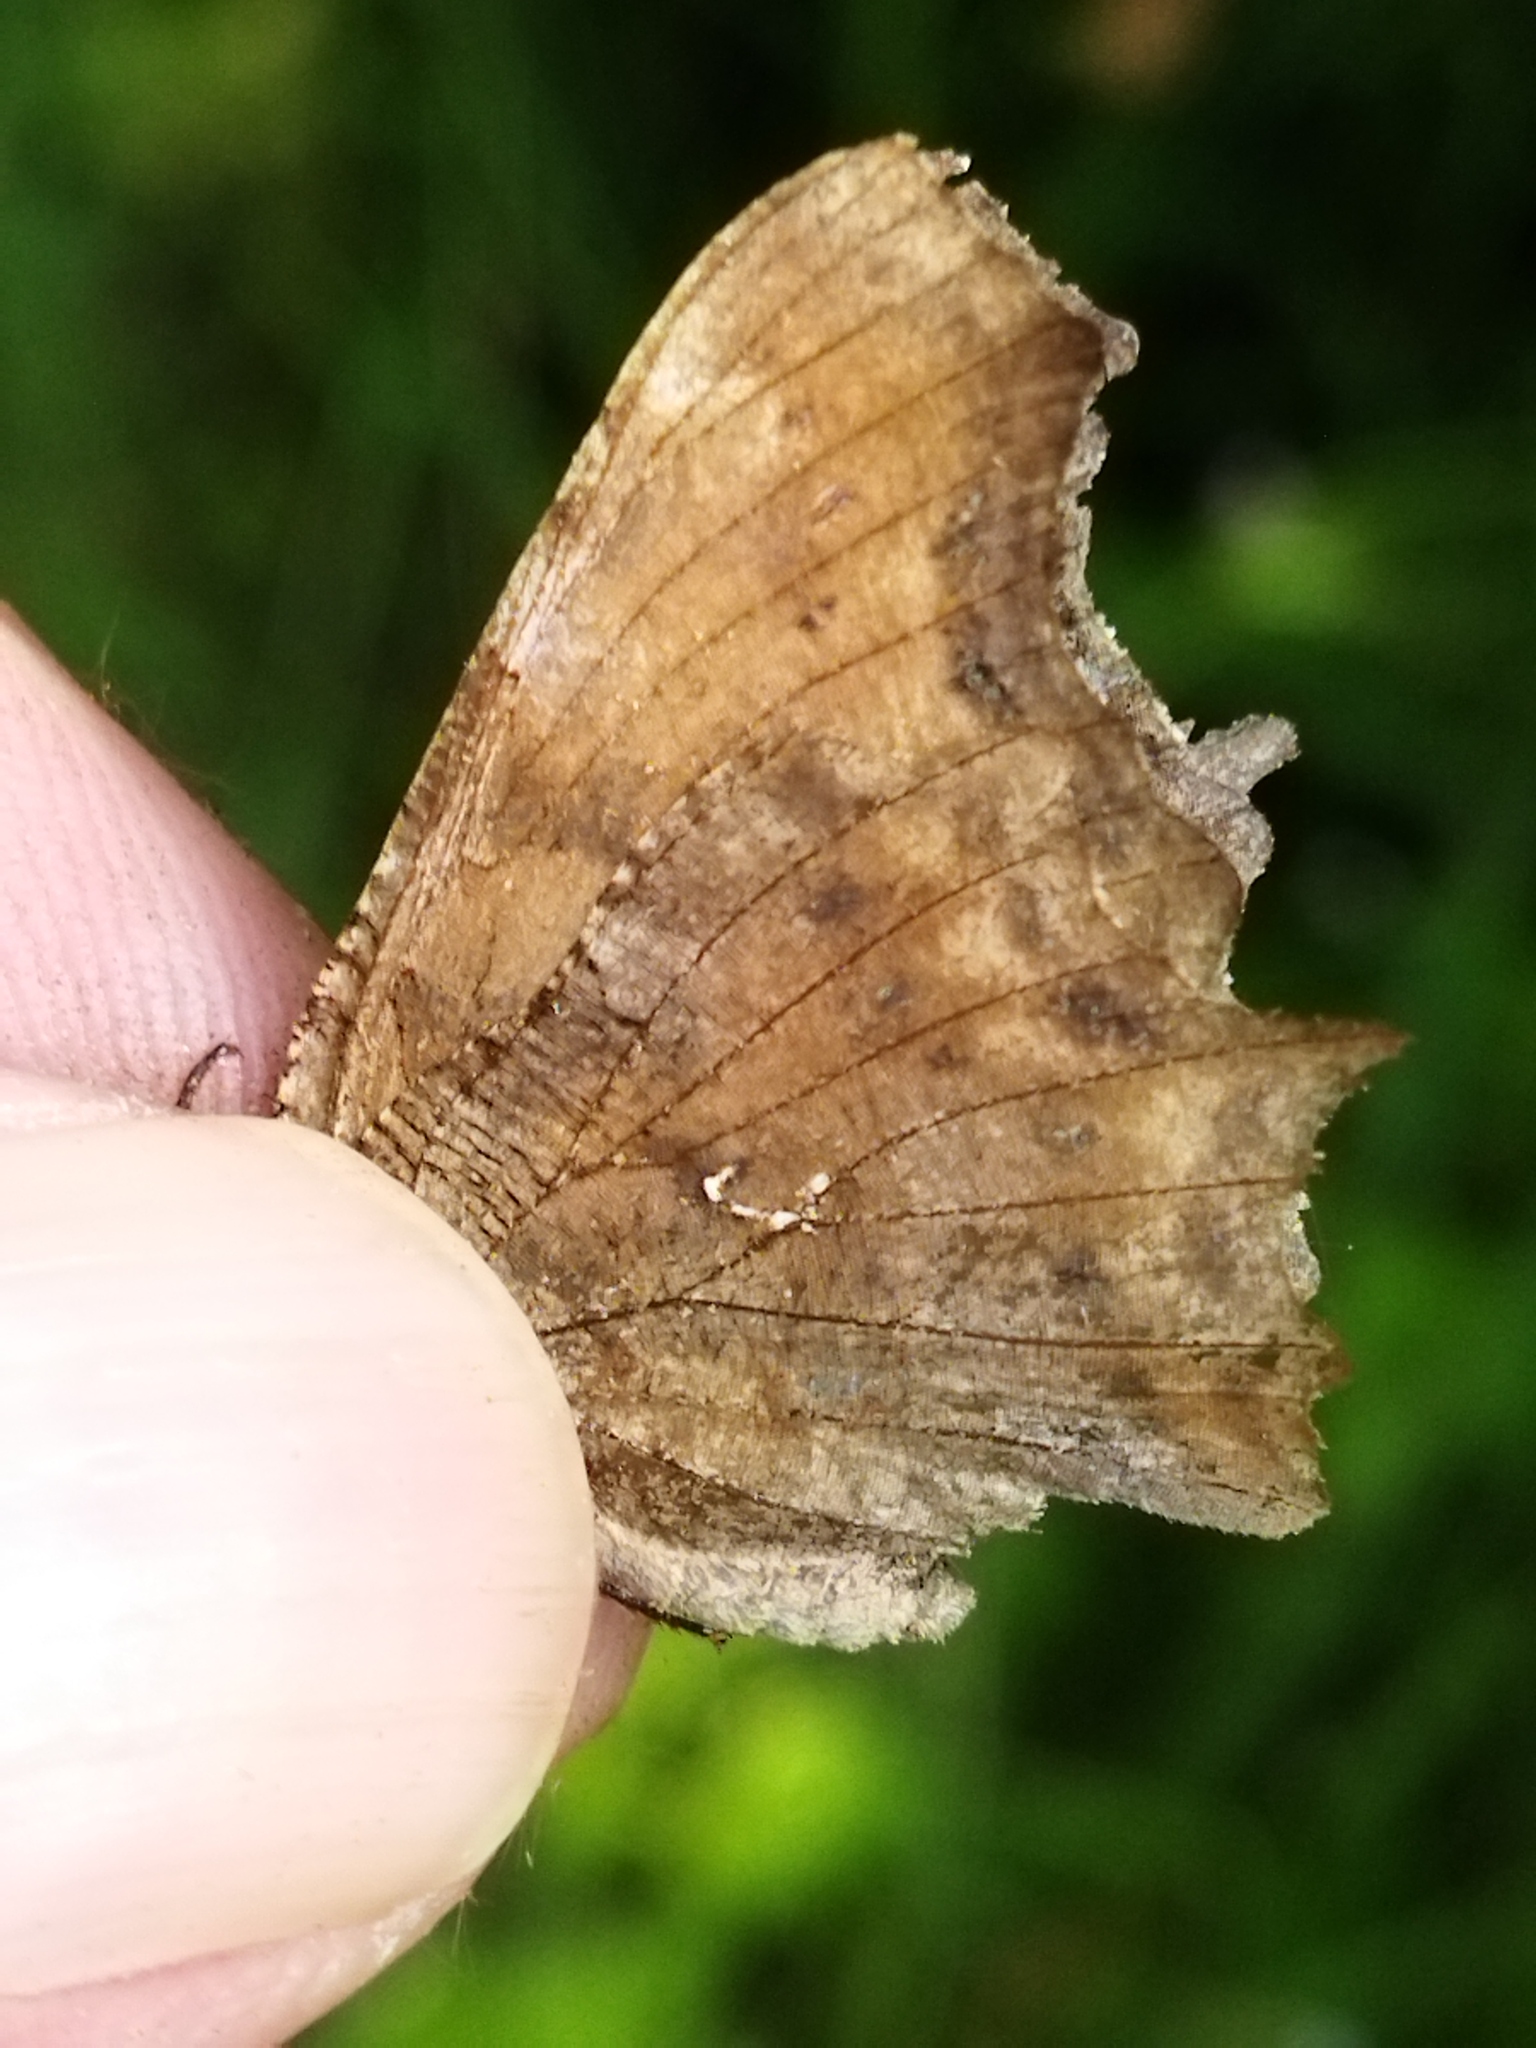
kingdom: Animalia
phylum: Arthropoda
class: Insecta
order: Lepidoptera
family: Nymphalidae
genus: Polygonia
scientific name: Polygonia c-album
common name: Comma
